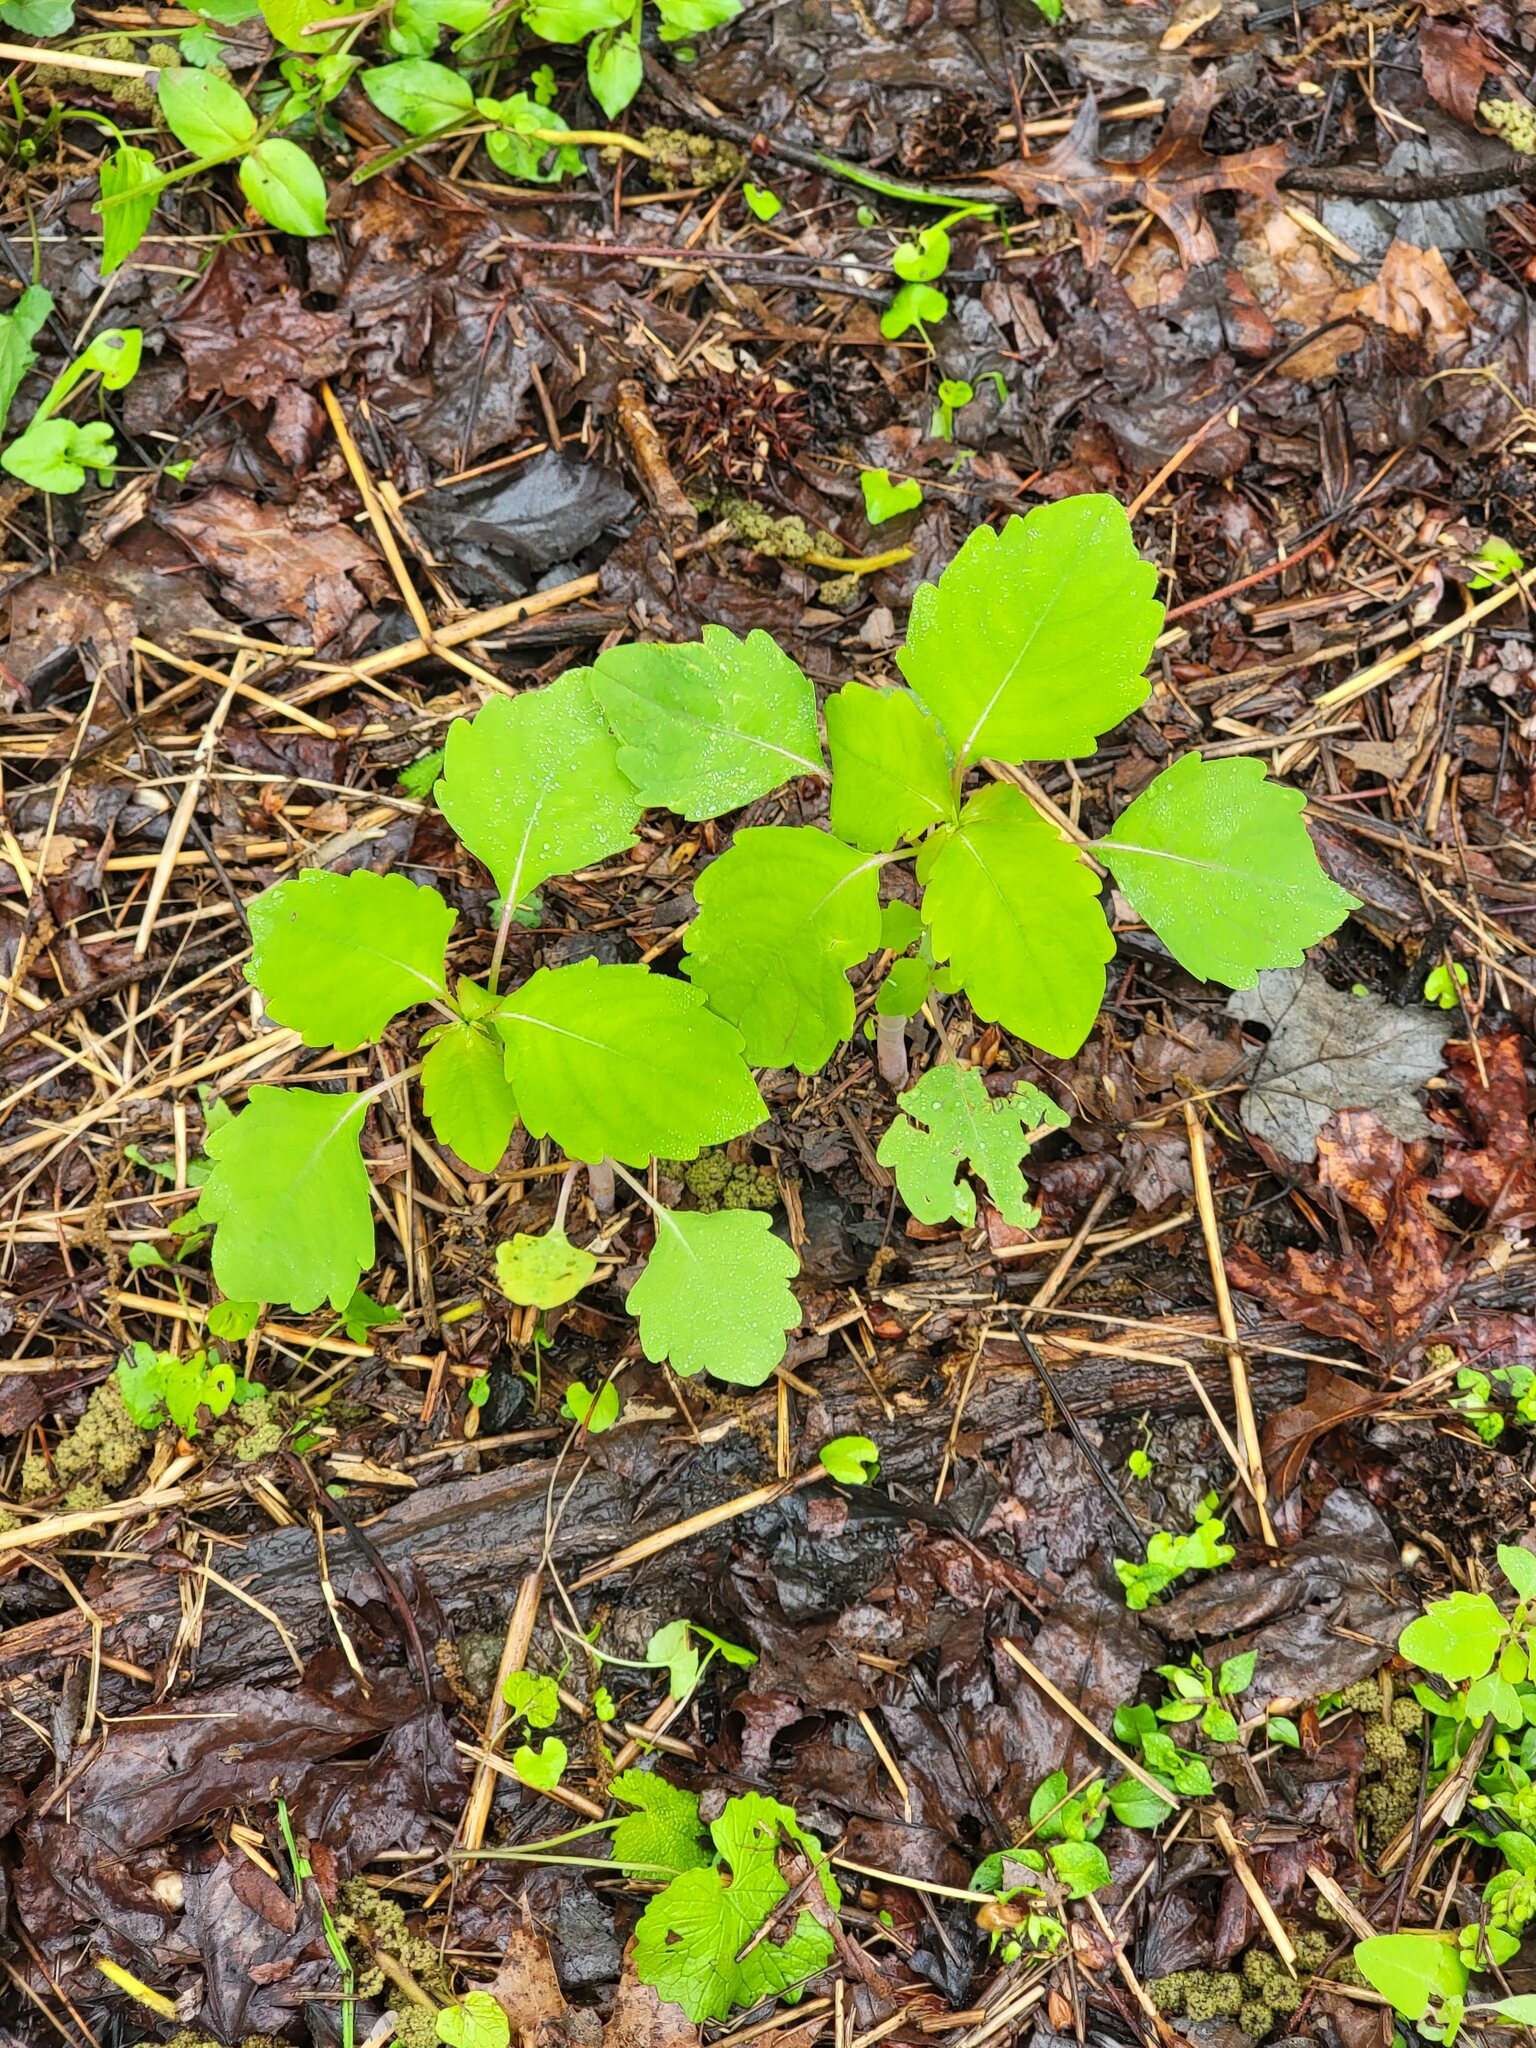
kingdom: Plantae
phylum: Tracheophyta
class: Magnoliopsida
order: Ericales
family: Balsaminaceae
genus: Impatiens
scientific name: Impatiens
